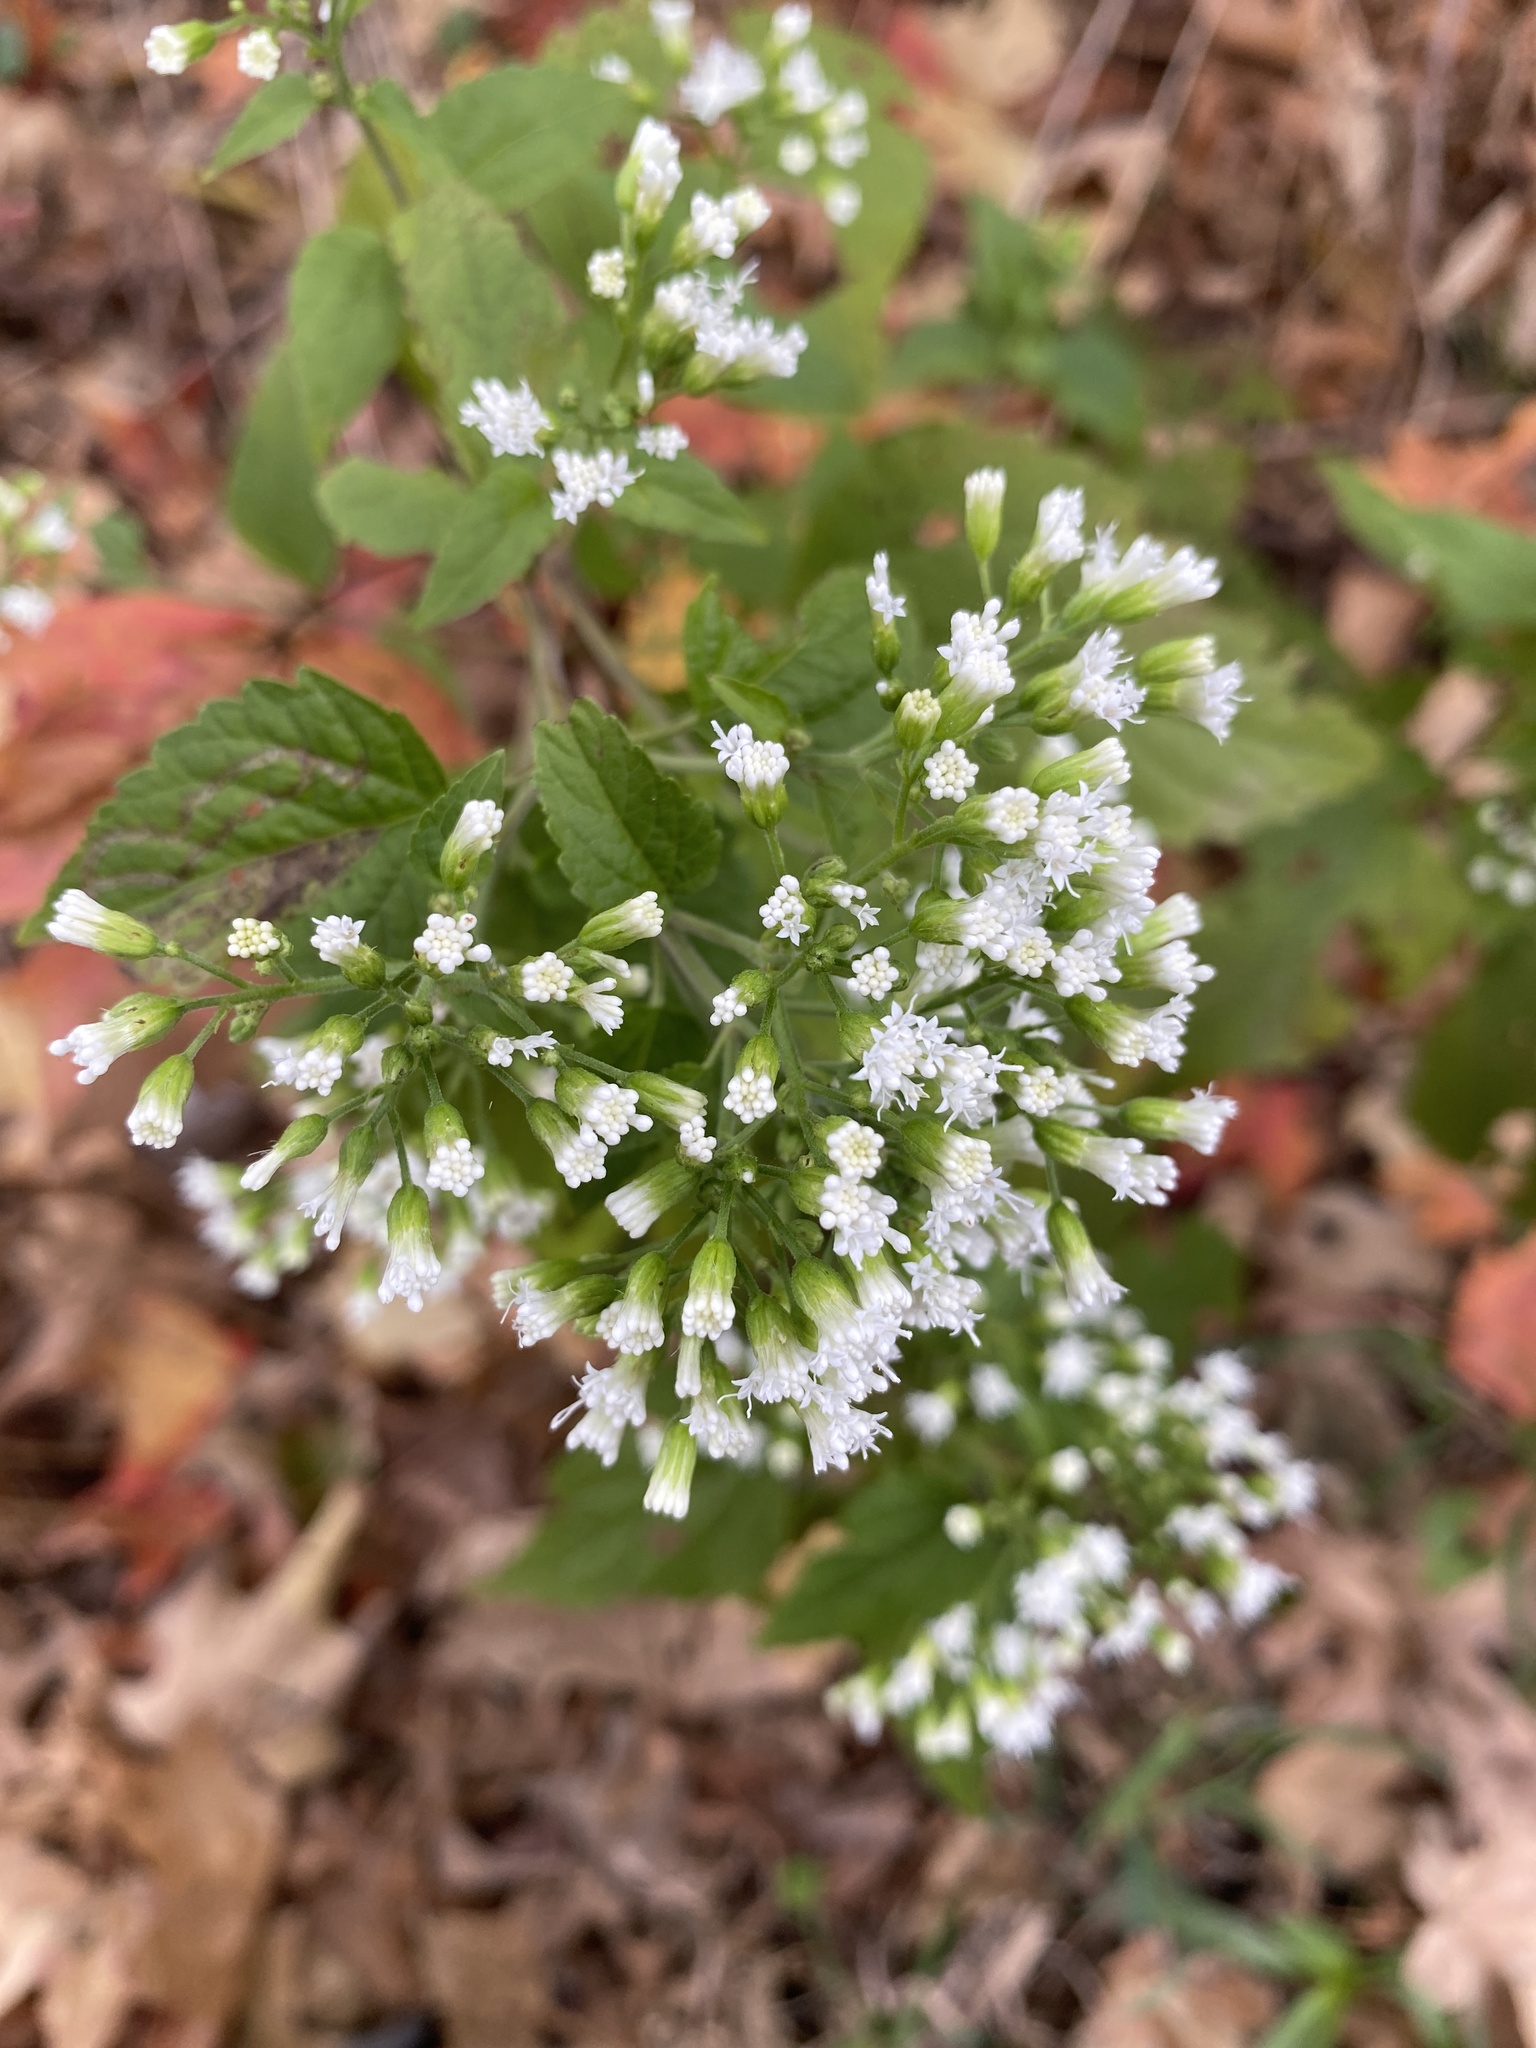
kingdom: Plantae
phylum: Tracheophyta
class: Magnoliopsida
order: Asterales
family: Asteraceae
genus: Ageratina
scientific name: Ageratina altissima
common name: White snakeroot
